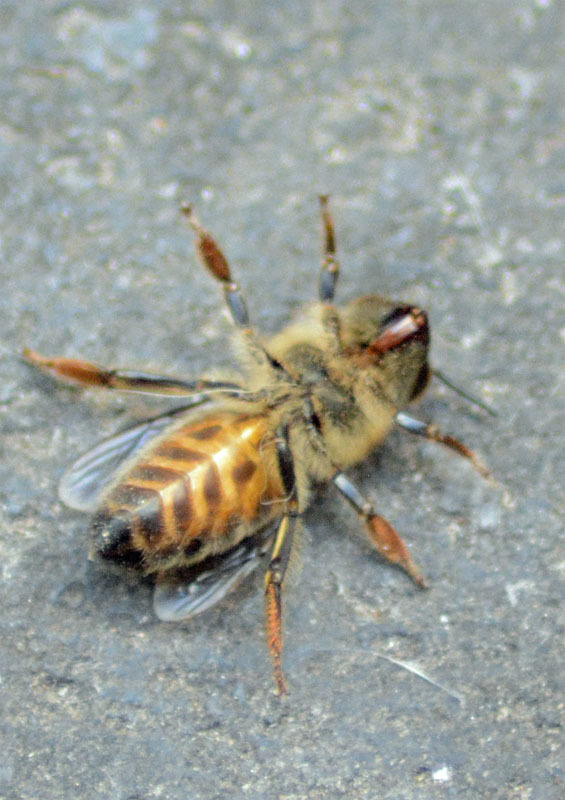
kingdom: Animalia
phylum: Arthropoda
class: Insecta
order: Hymenoptera
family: Apidae
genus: Apis
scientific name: Apis mellifera
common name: Honey bee
